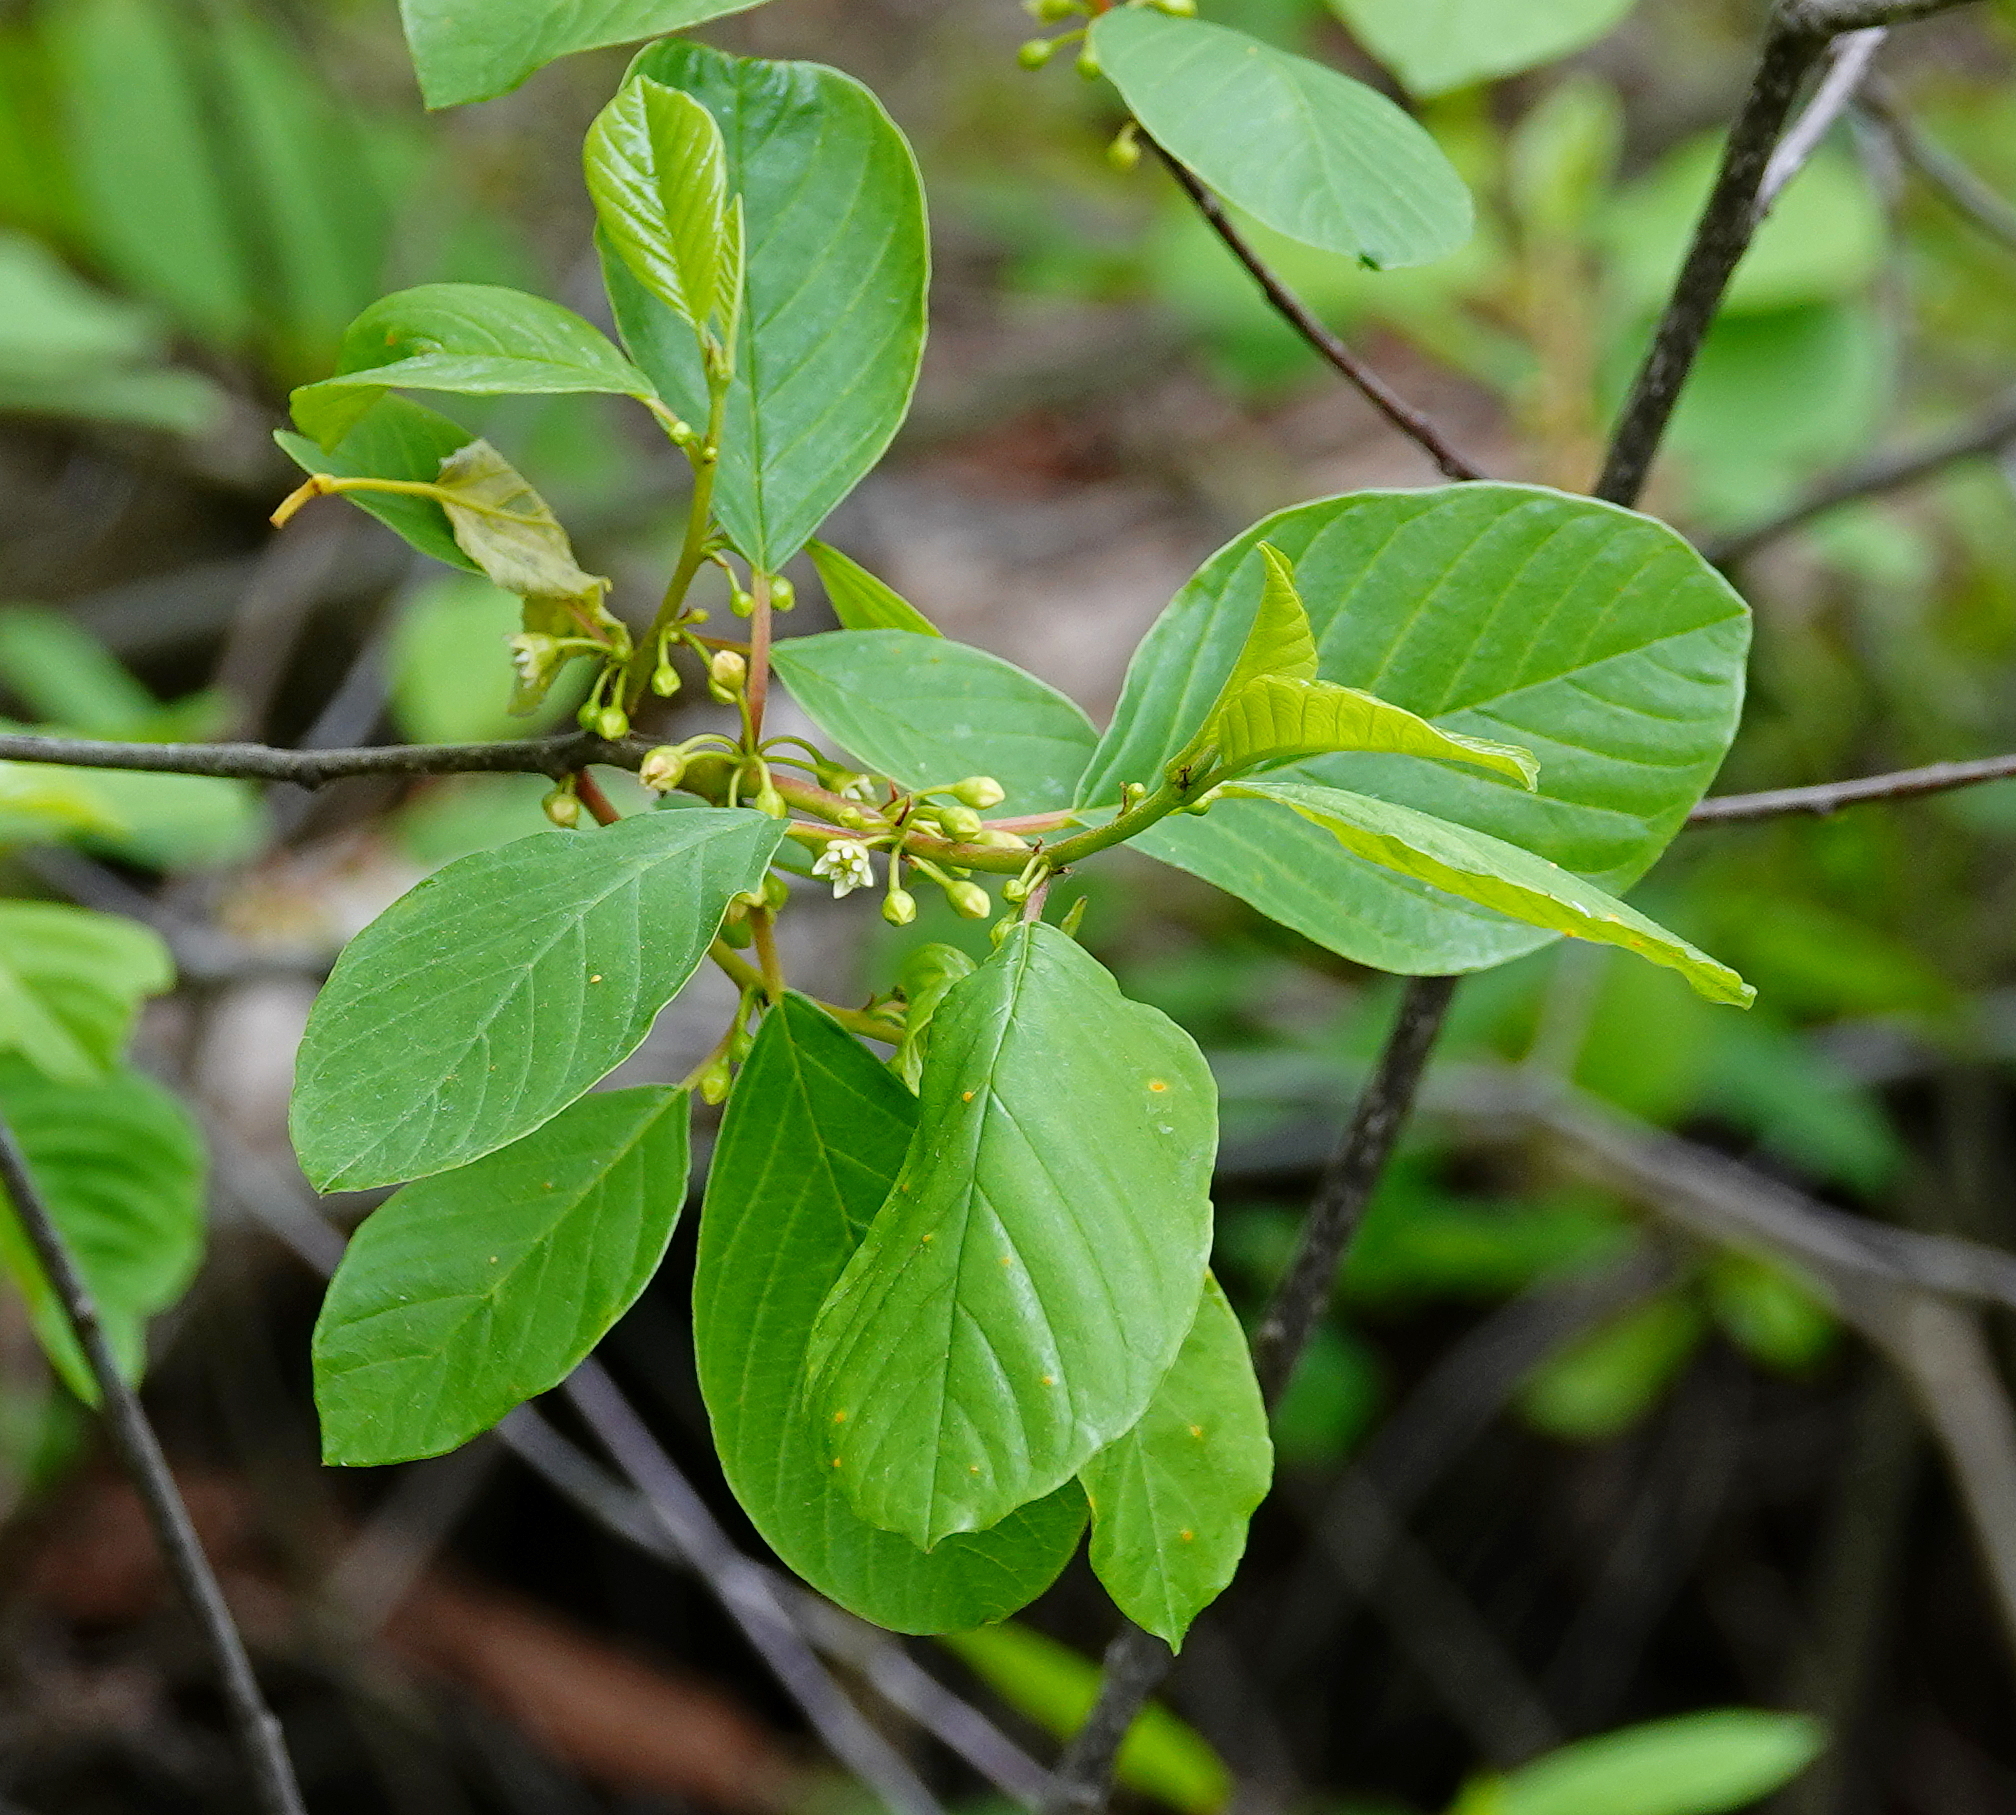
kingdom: Plantae
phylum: Tracheophyta
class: Magnoliopsida
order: Rosales
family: Rhamnaceae
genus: Frangula
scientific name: Frangula alnus
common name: Alder buckthorn
